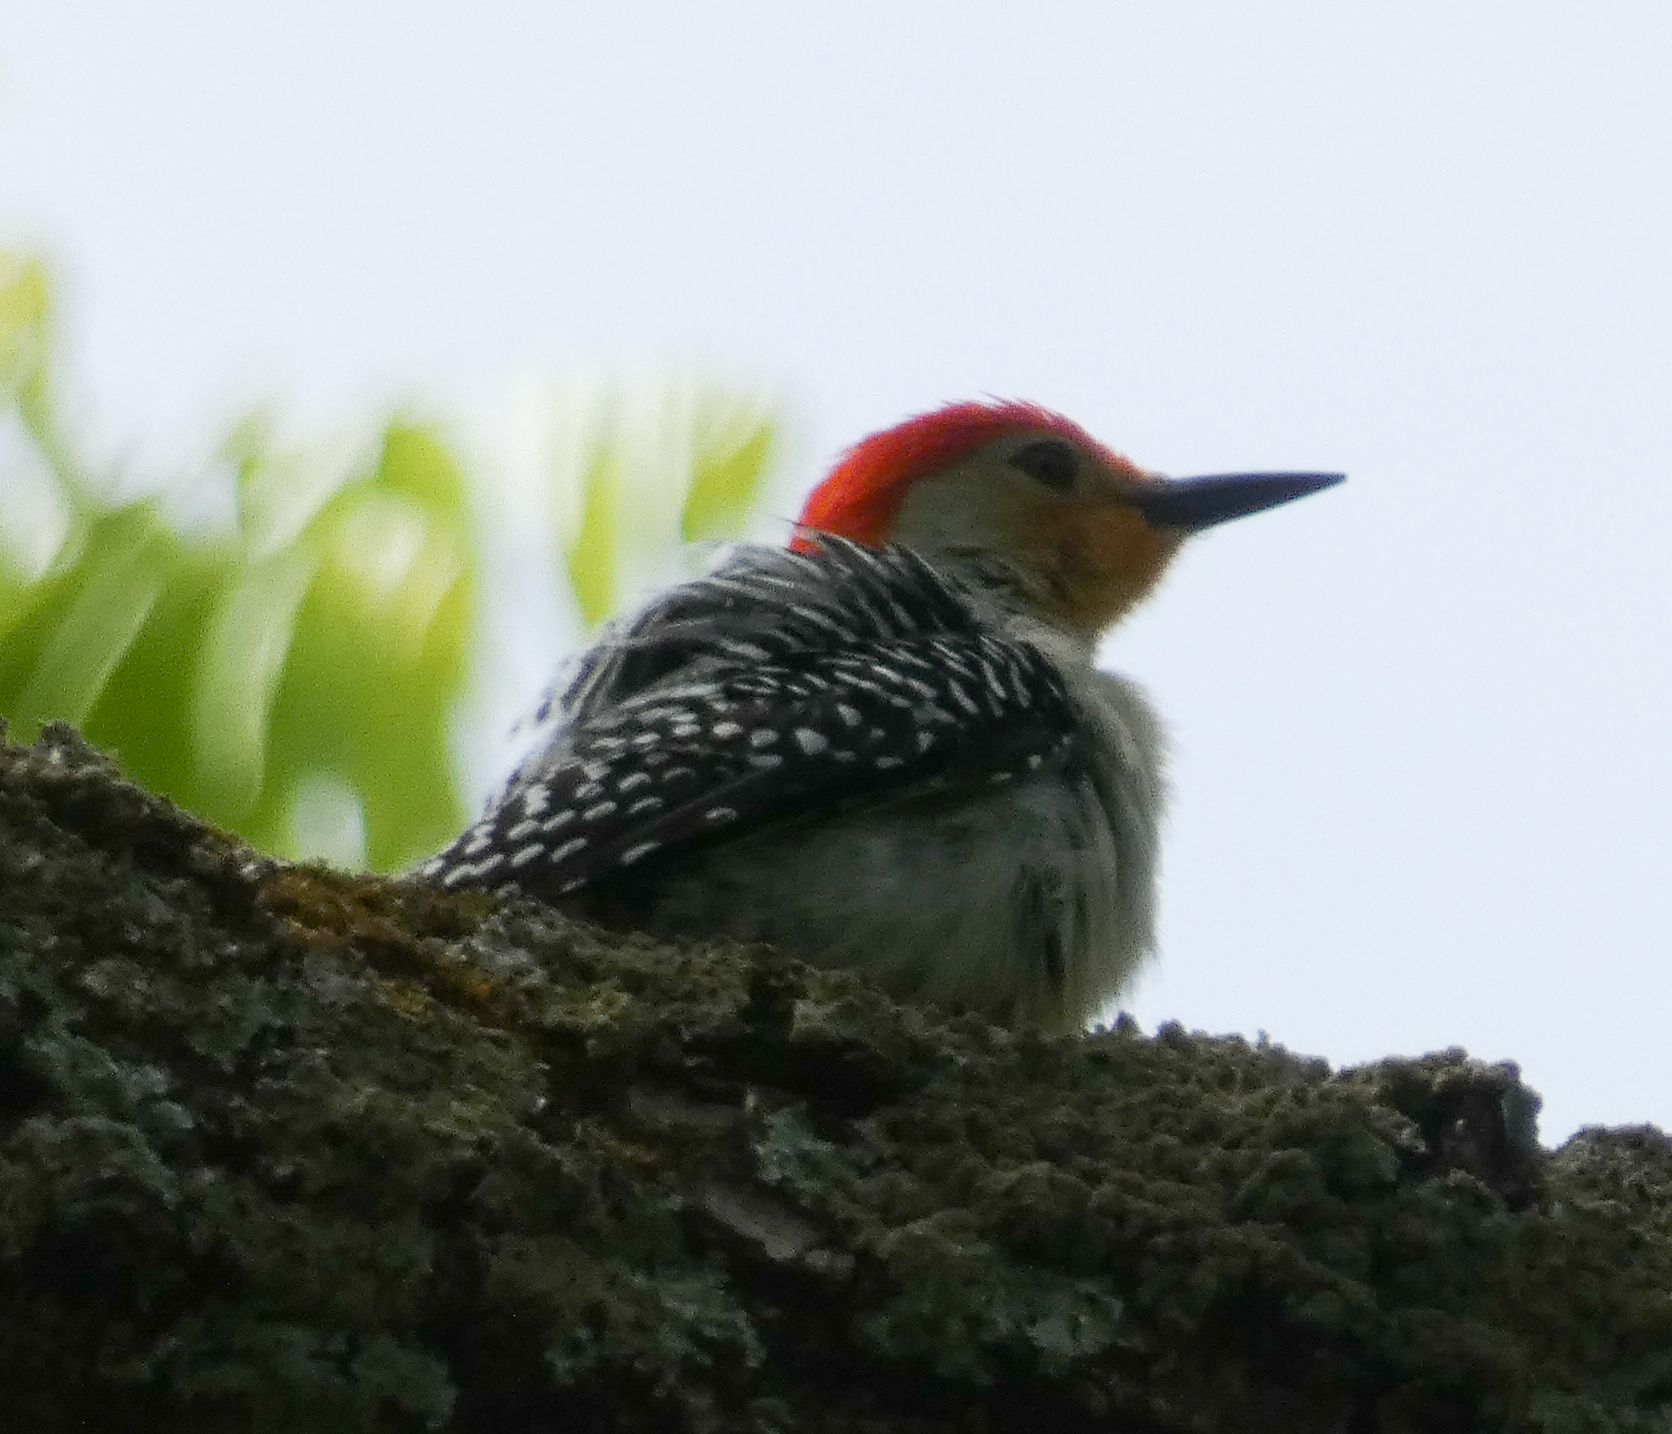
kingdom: Animalia
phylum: Chordata
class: Aves
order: Piciformes
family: Picidae
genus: Melanerpes
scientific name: Melanerpes carolinus
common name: Red-bellied woodpecker
